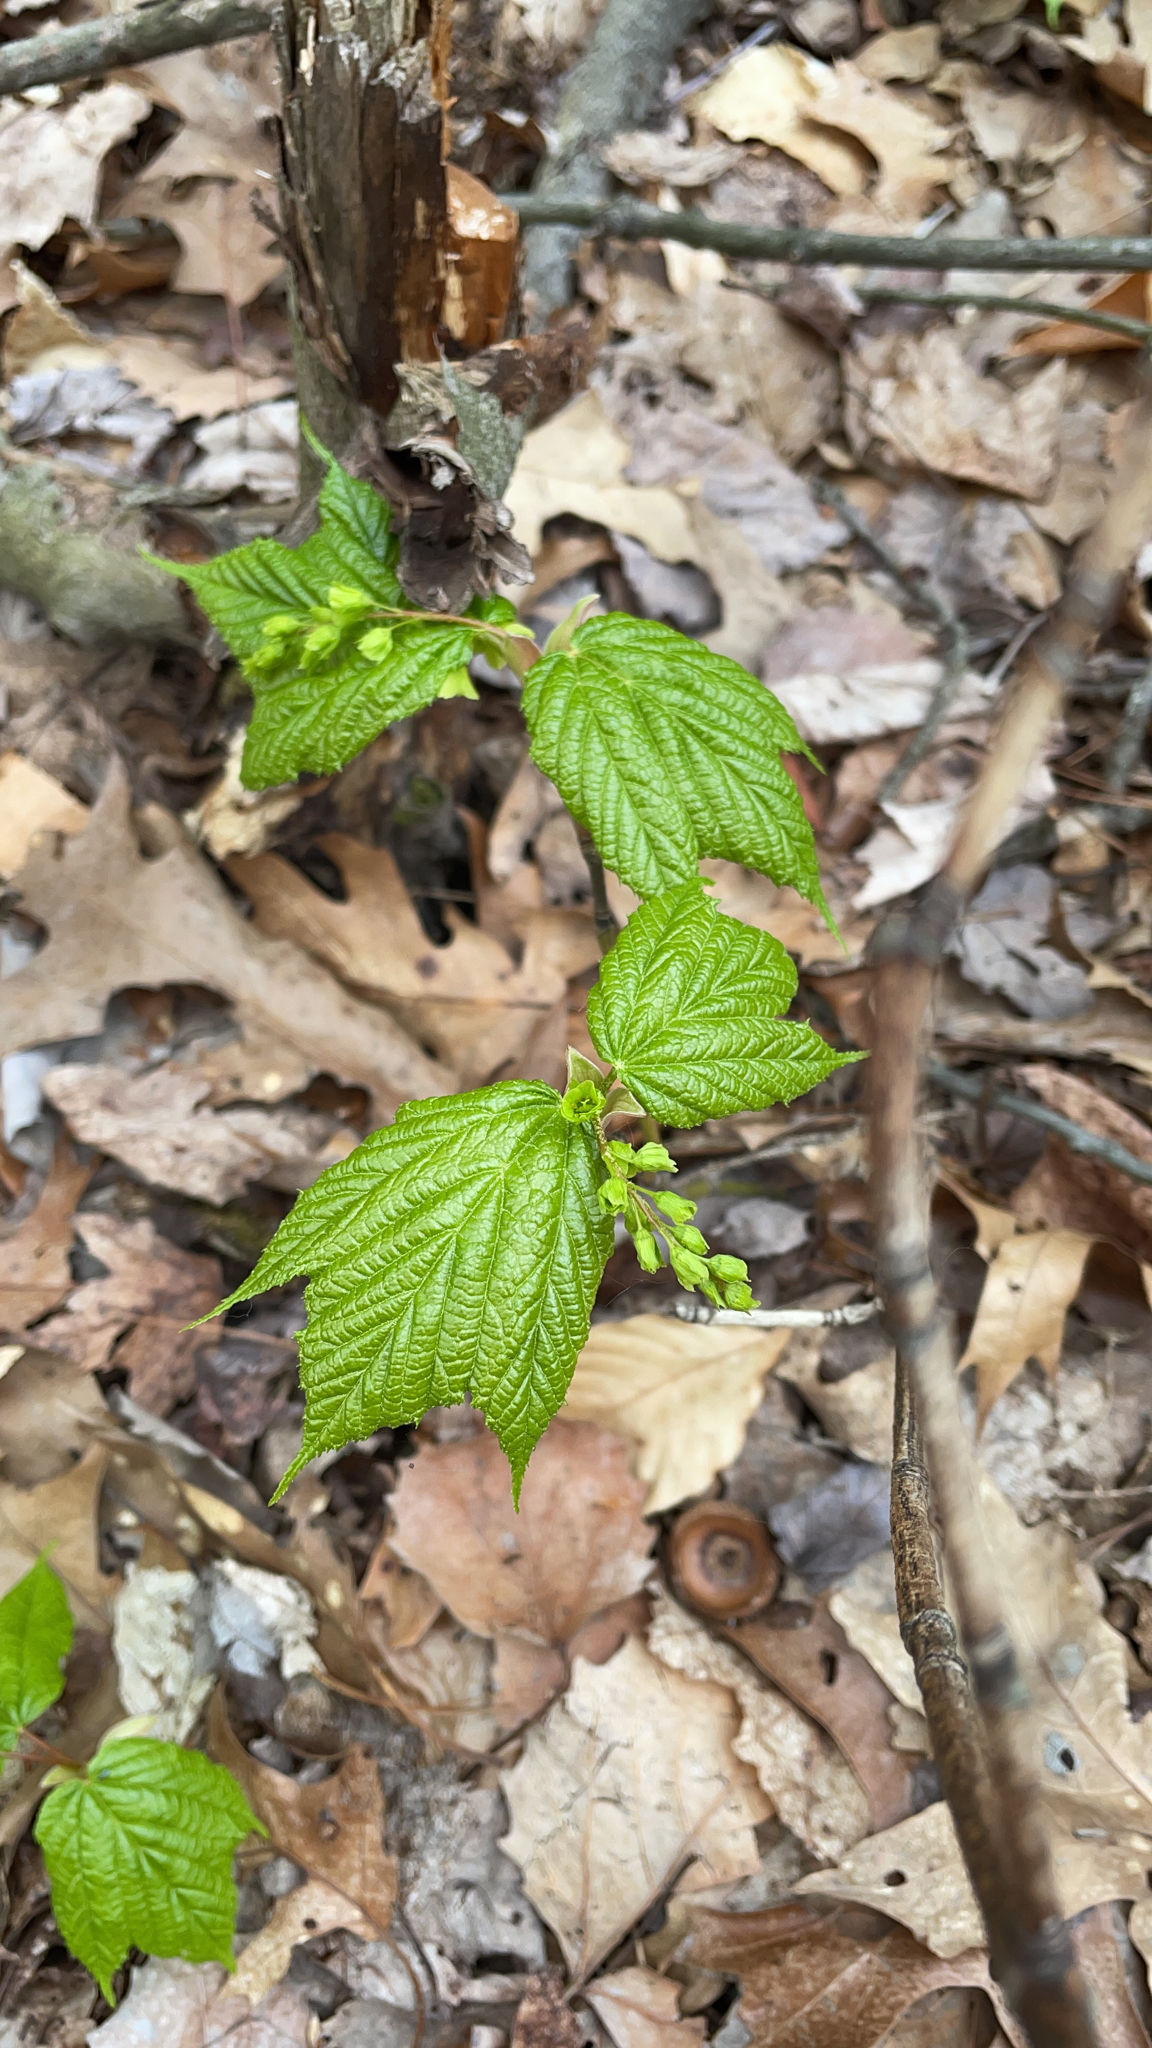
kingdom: Plantae
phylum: Tracheophyta
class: Magnoliopsida
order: Sapindales
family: Sapindaceae
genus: Acer
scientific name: Acer pensylvanicum
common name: Moosewood
